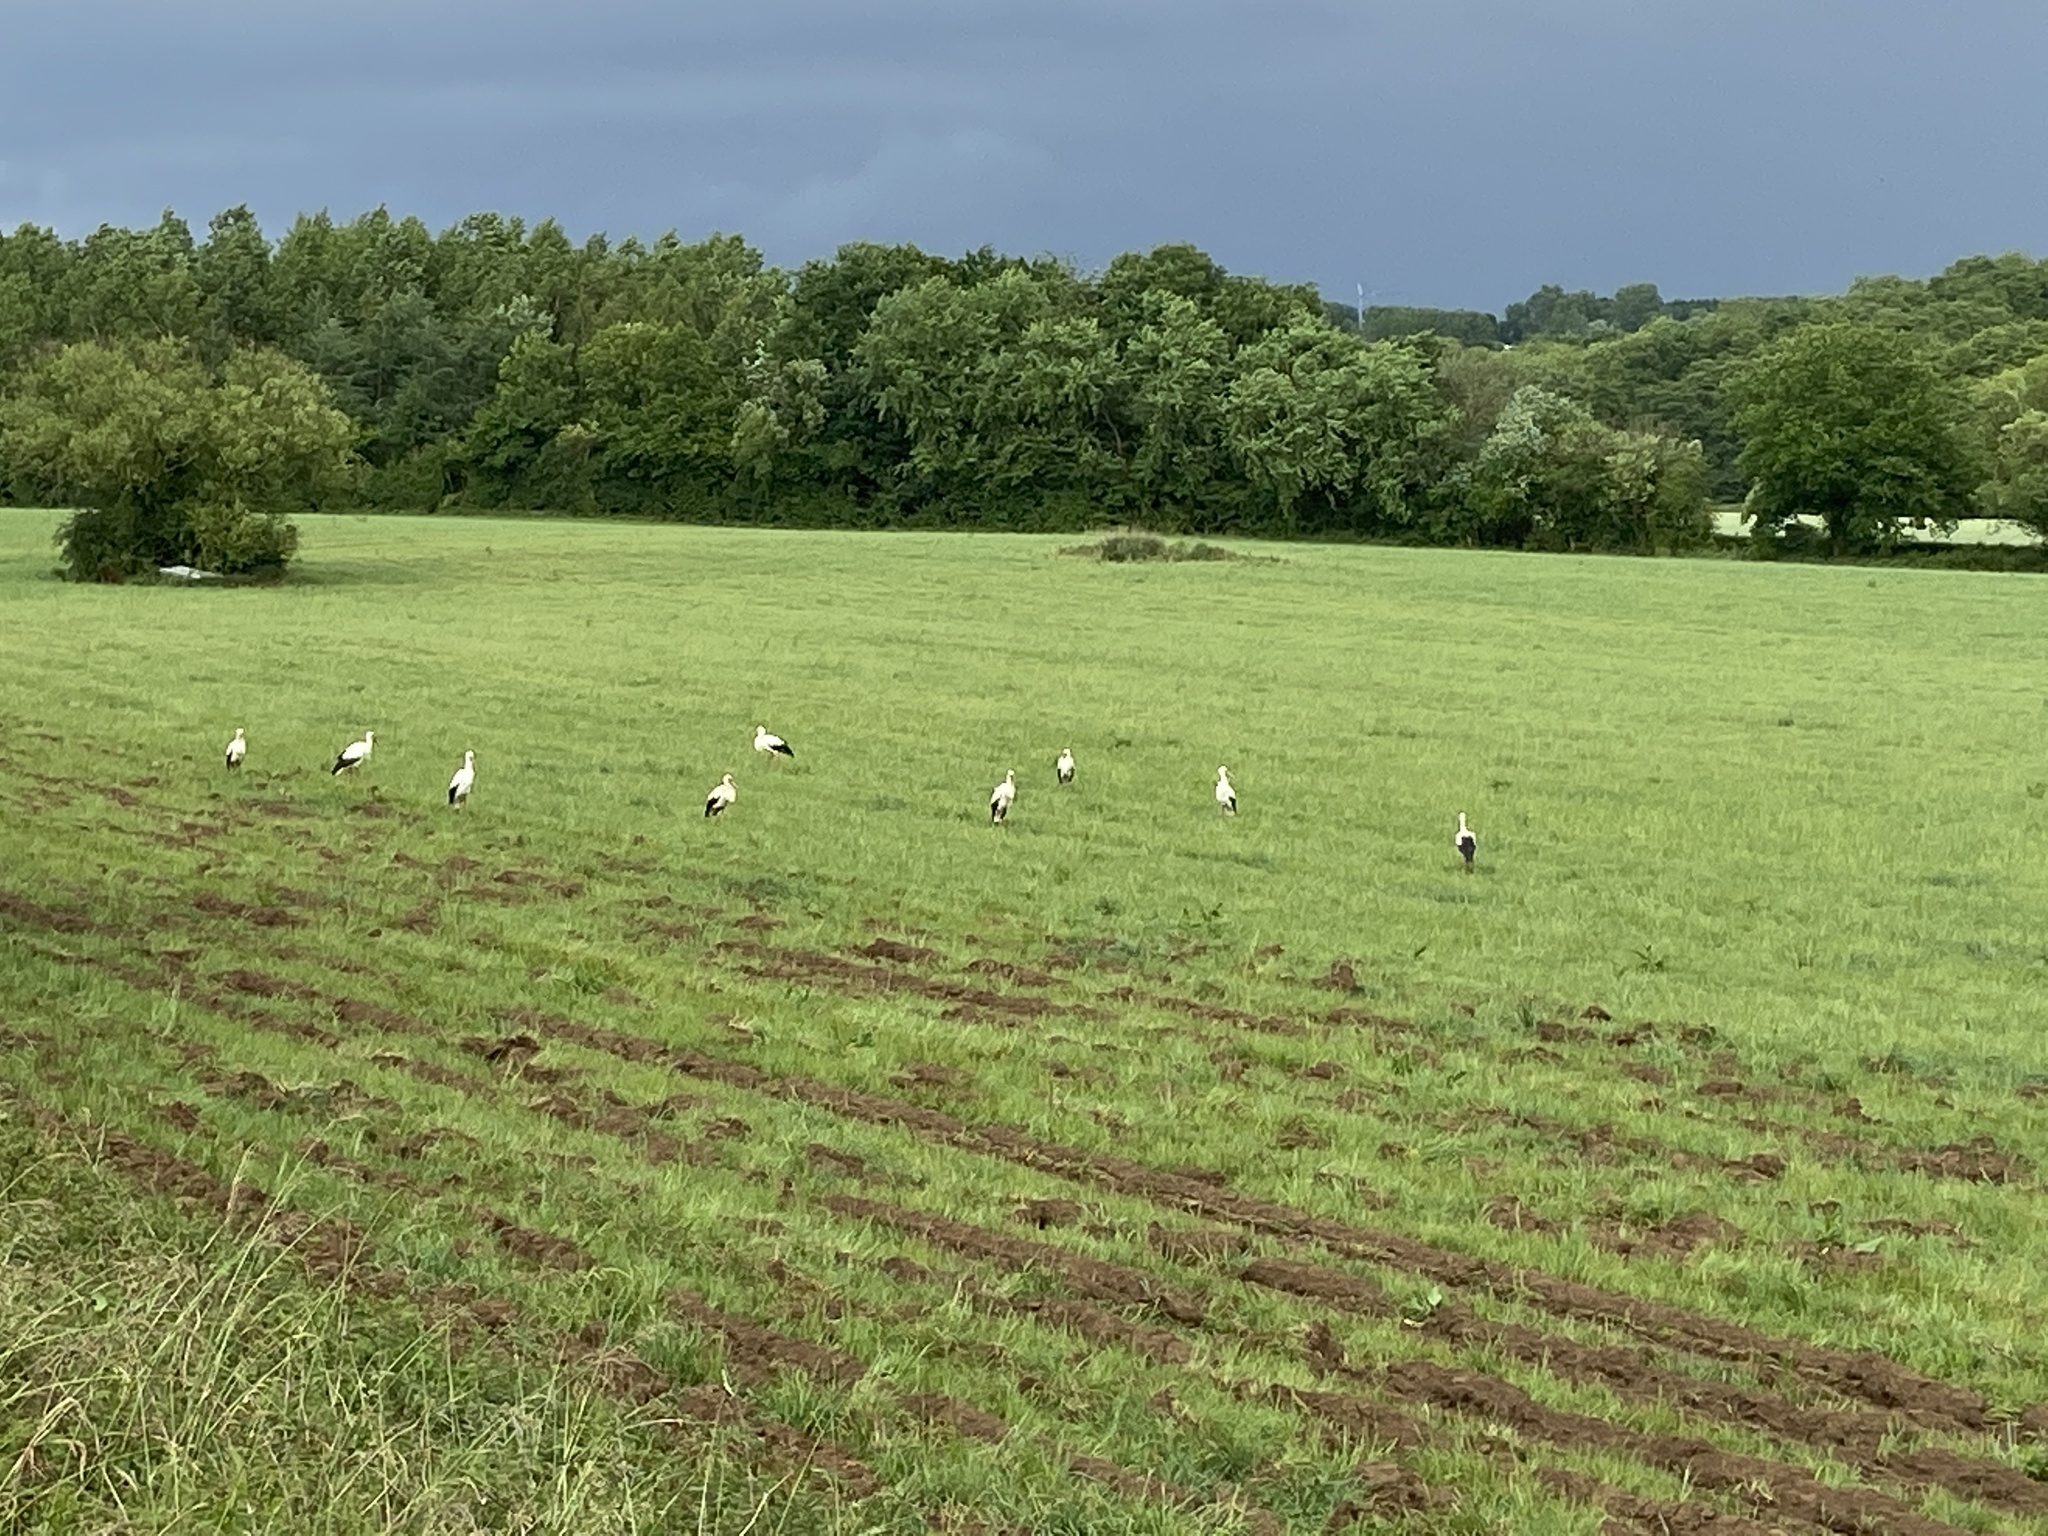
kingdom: Animalia
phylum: Chordata
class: Aves
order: Ciconiiformes
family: Ciconiidae
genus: Ciconia
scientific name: Ciconia ciconia
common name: White stork
